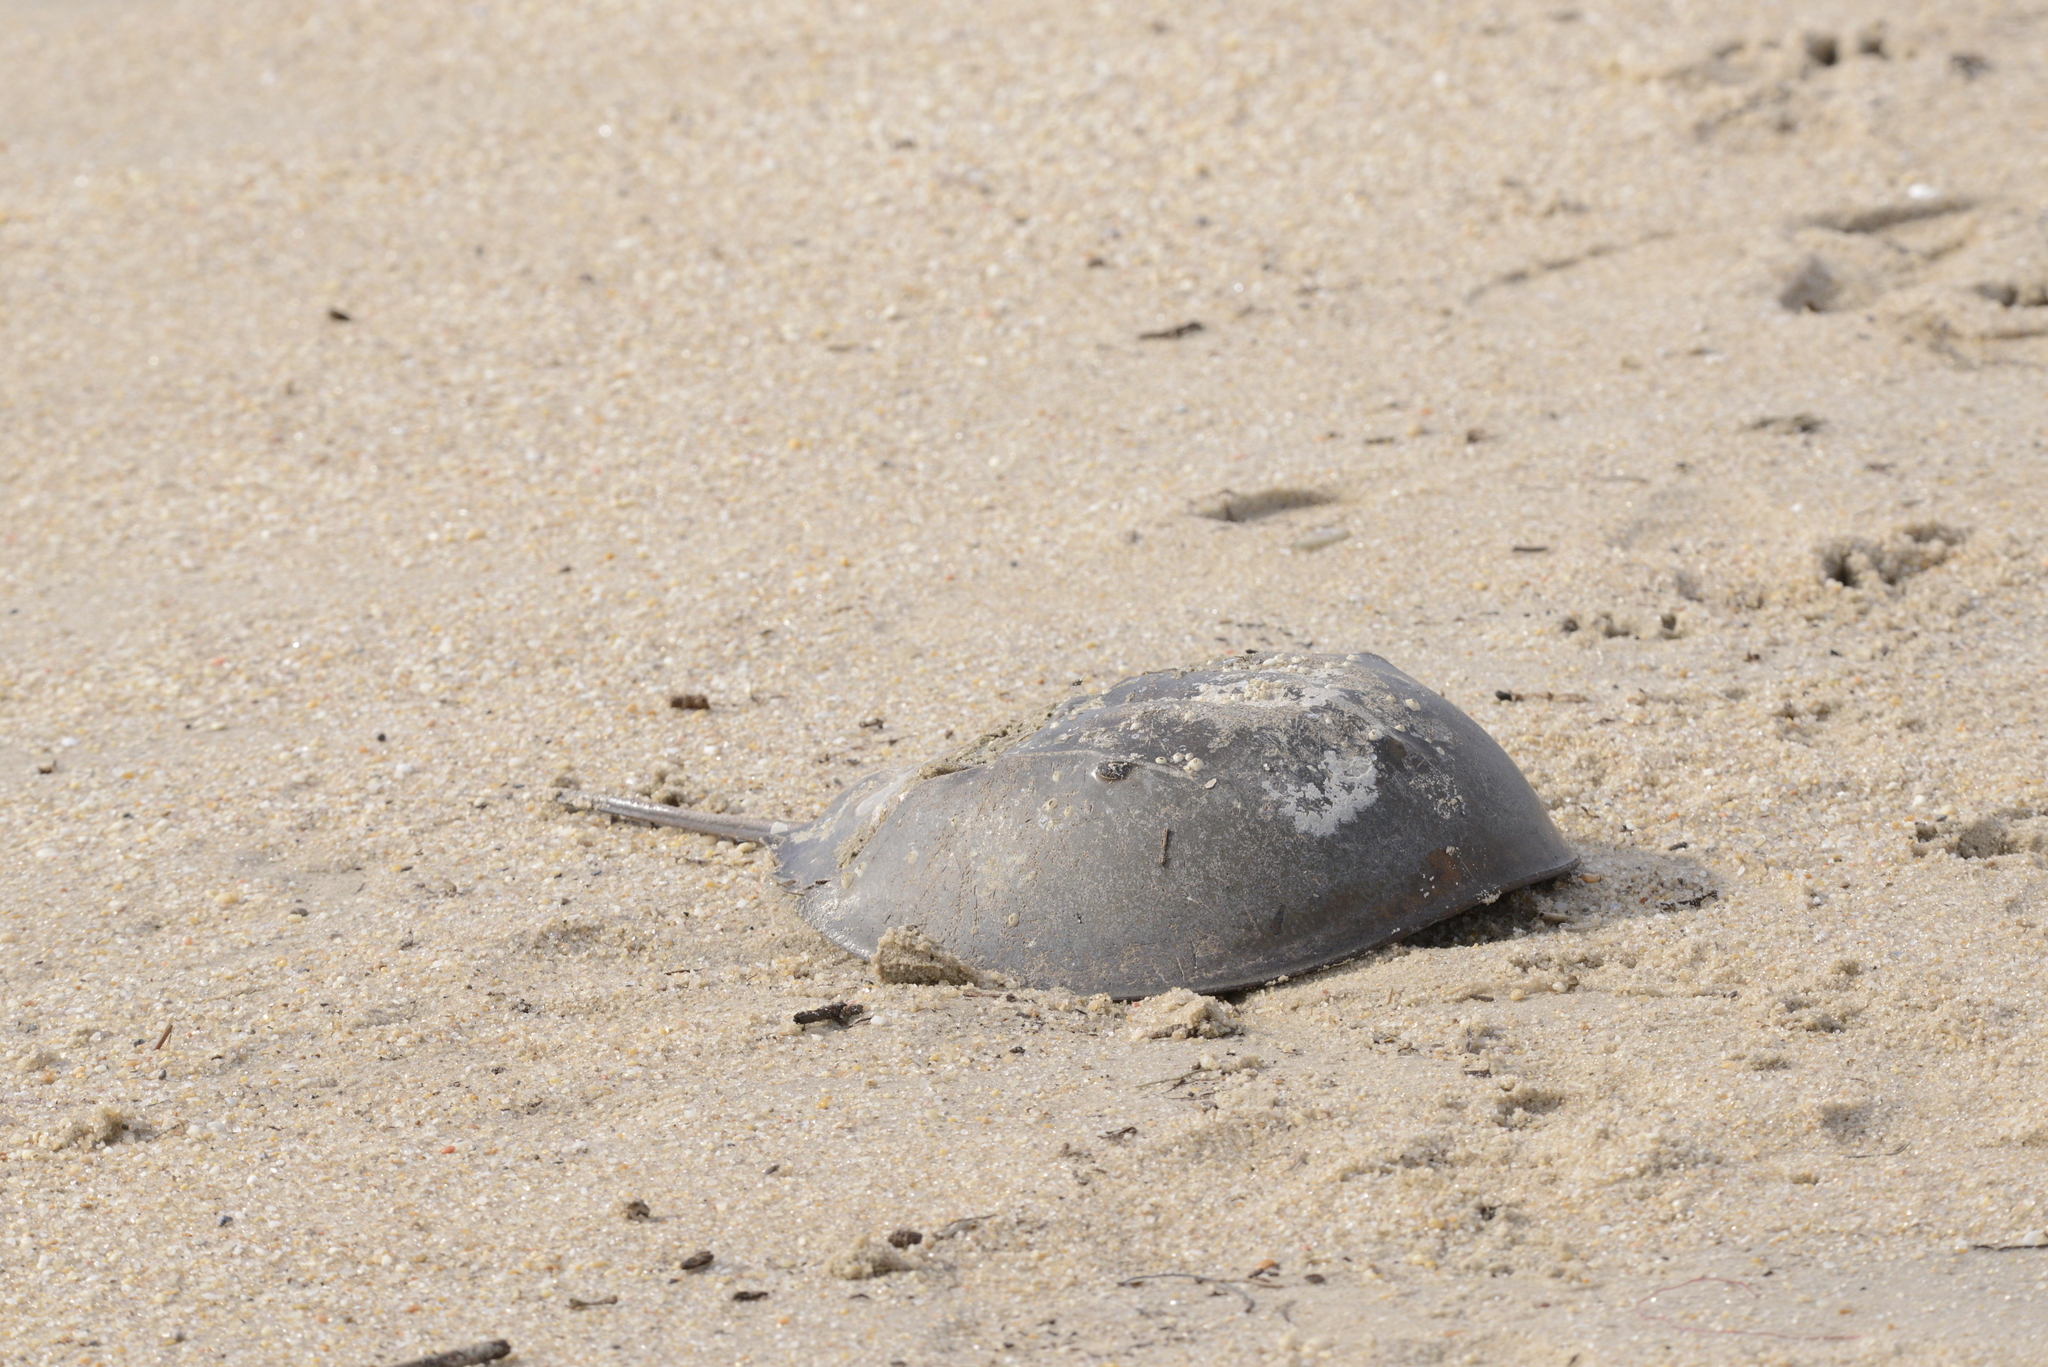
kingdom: Animalia
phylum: Arthropoda
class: Merostomata
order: Xiphosurida
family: Limulidae
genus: Limulus
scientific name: Limulus polyphemus
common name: Horseshoe crab
